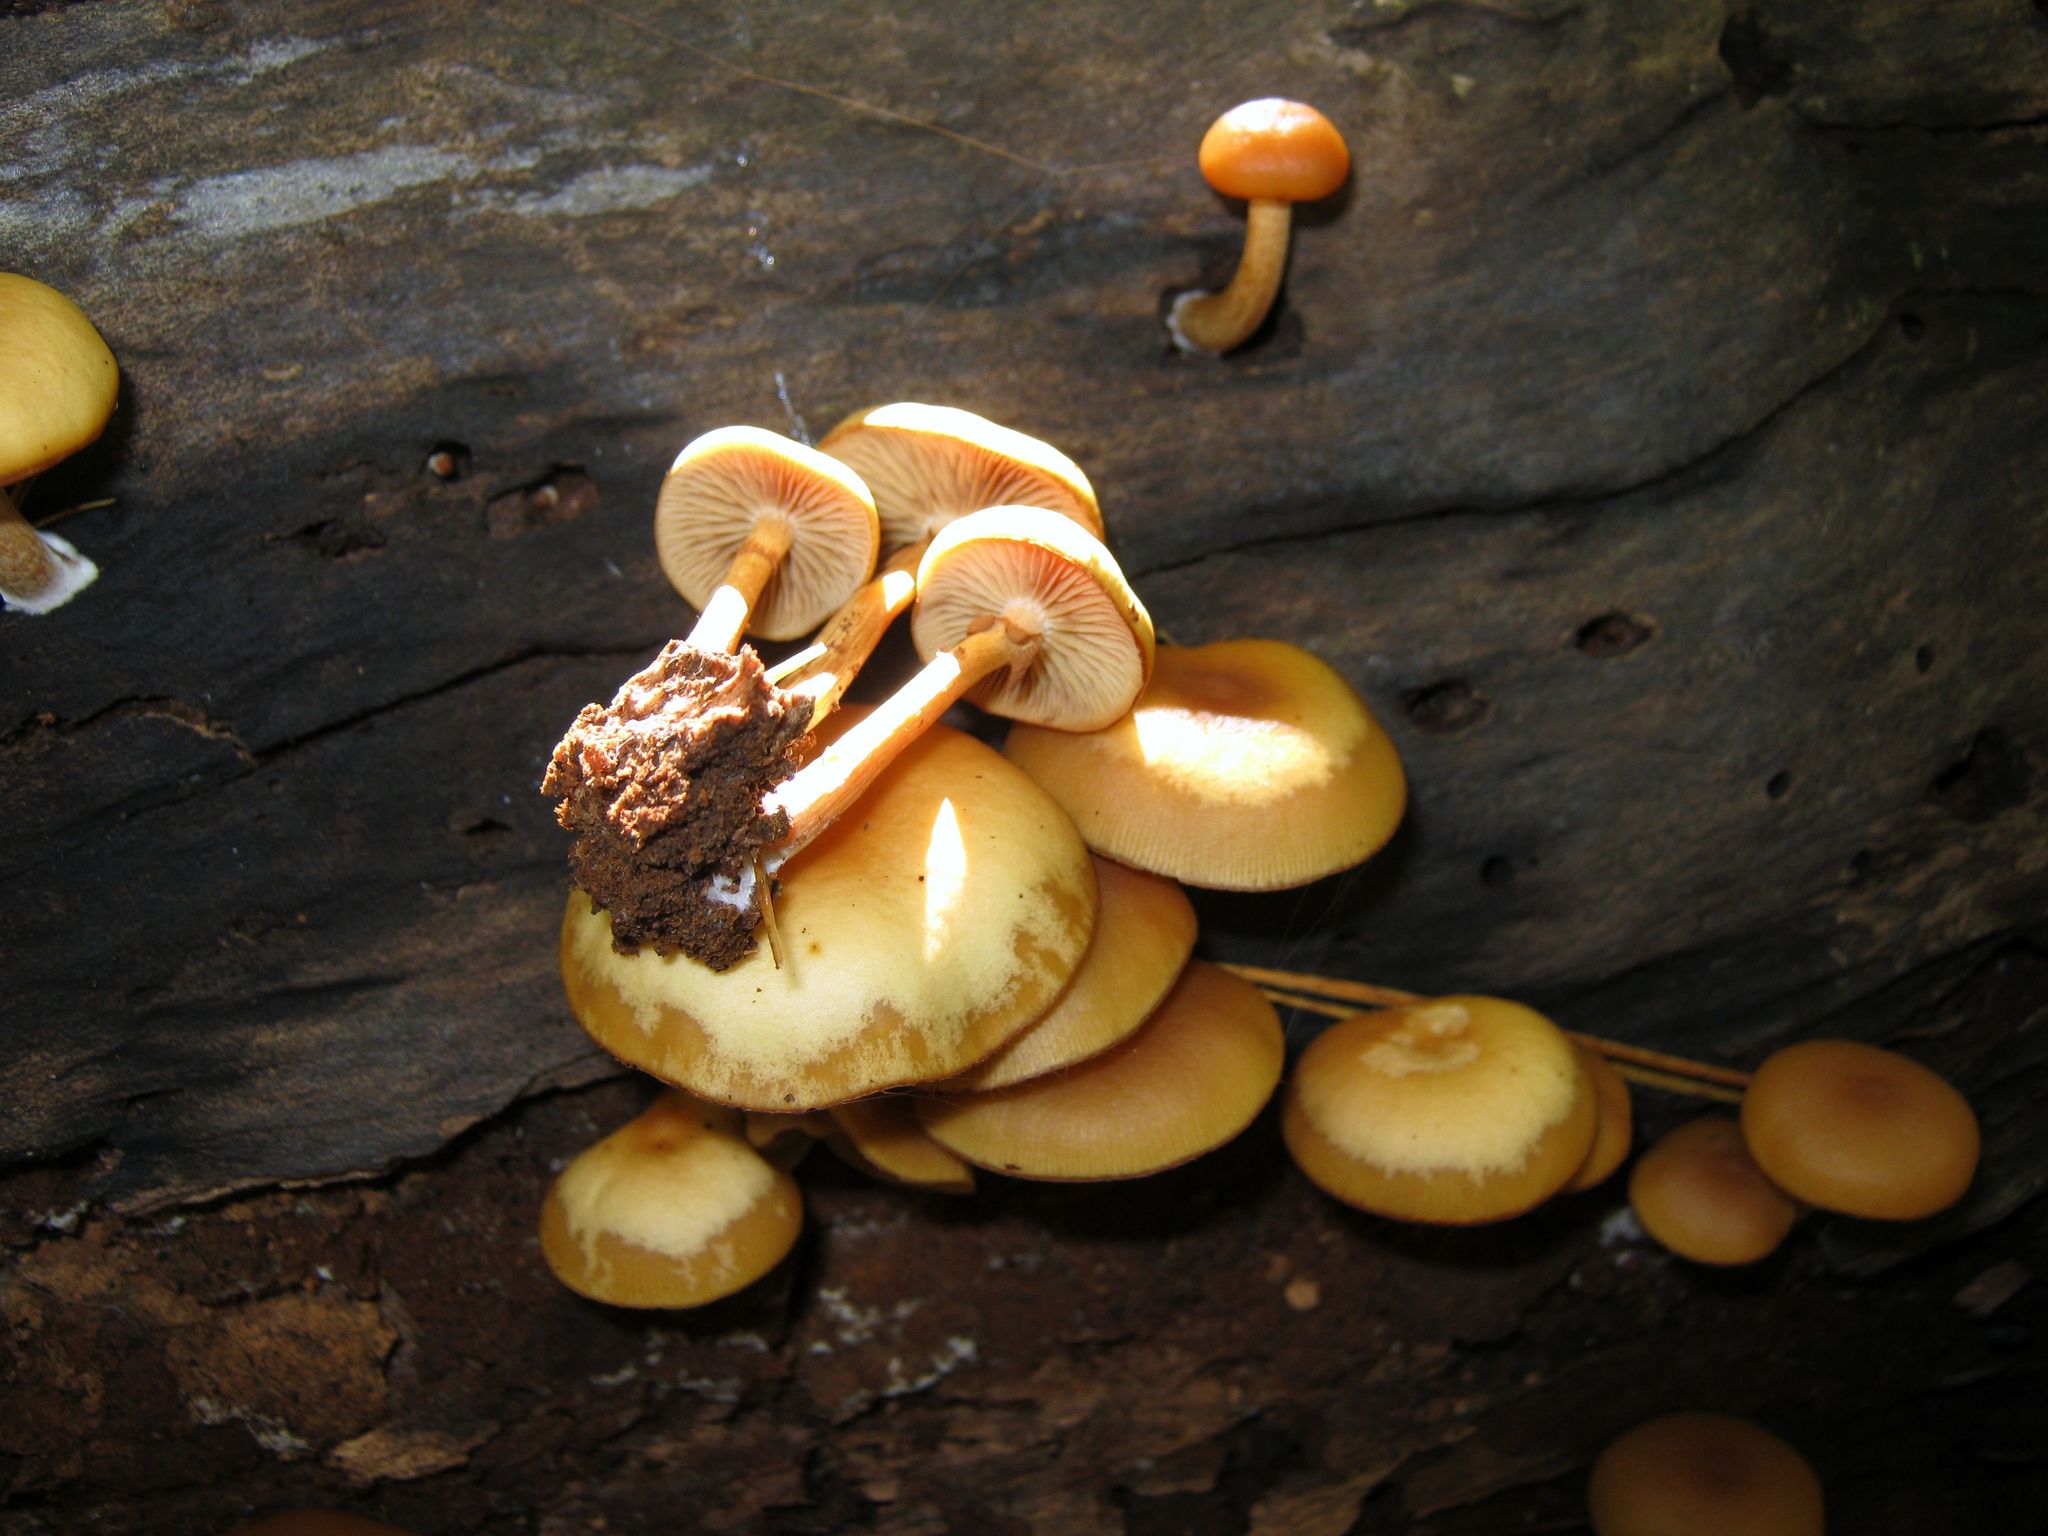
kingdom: Fungi
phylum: Basidiomycota
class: Agaricomycetes
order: Agaricales
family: Hymenogastraceae
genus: Galerina
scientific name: Galerina marginata
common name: Funeral bell
